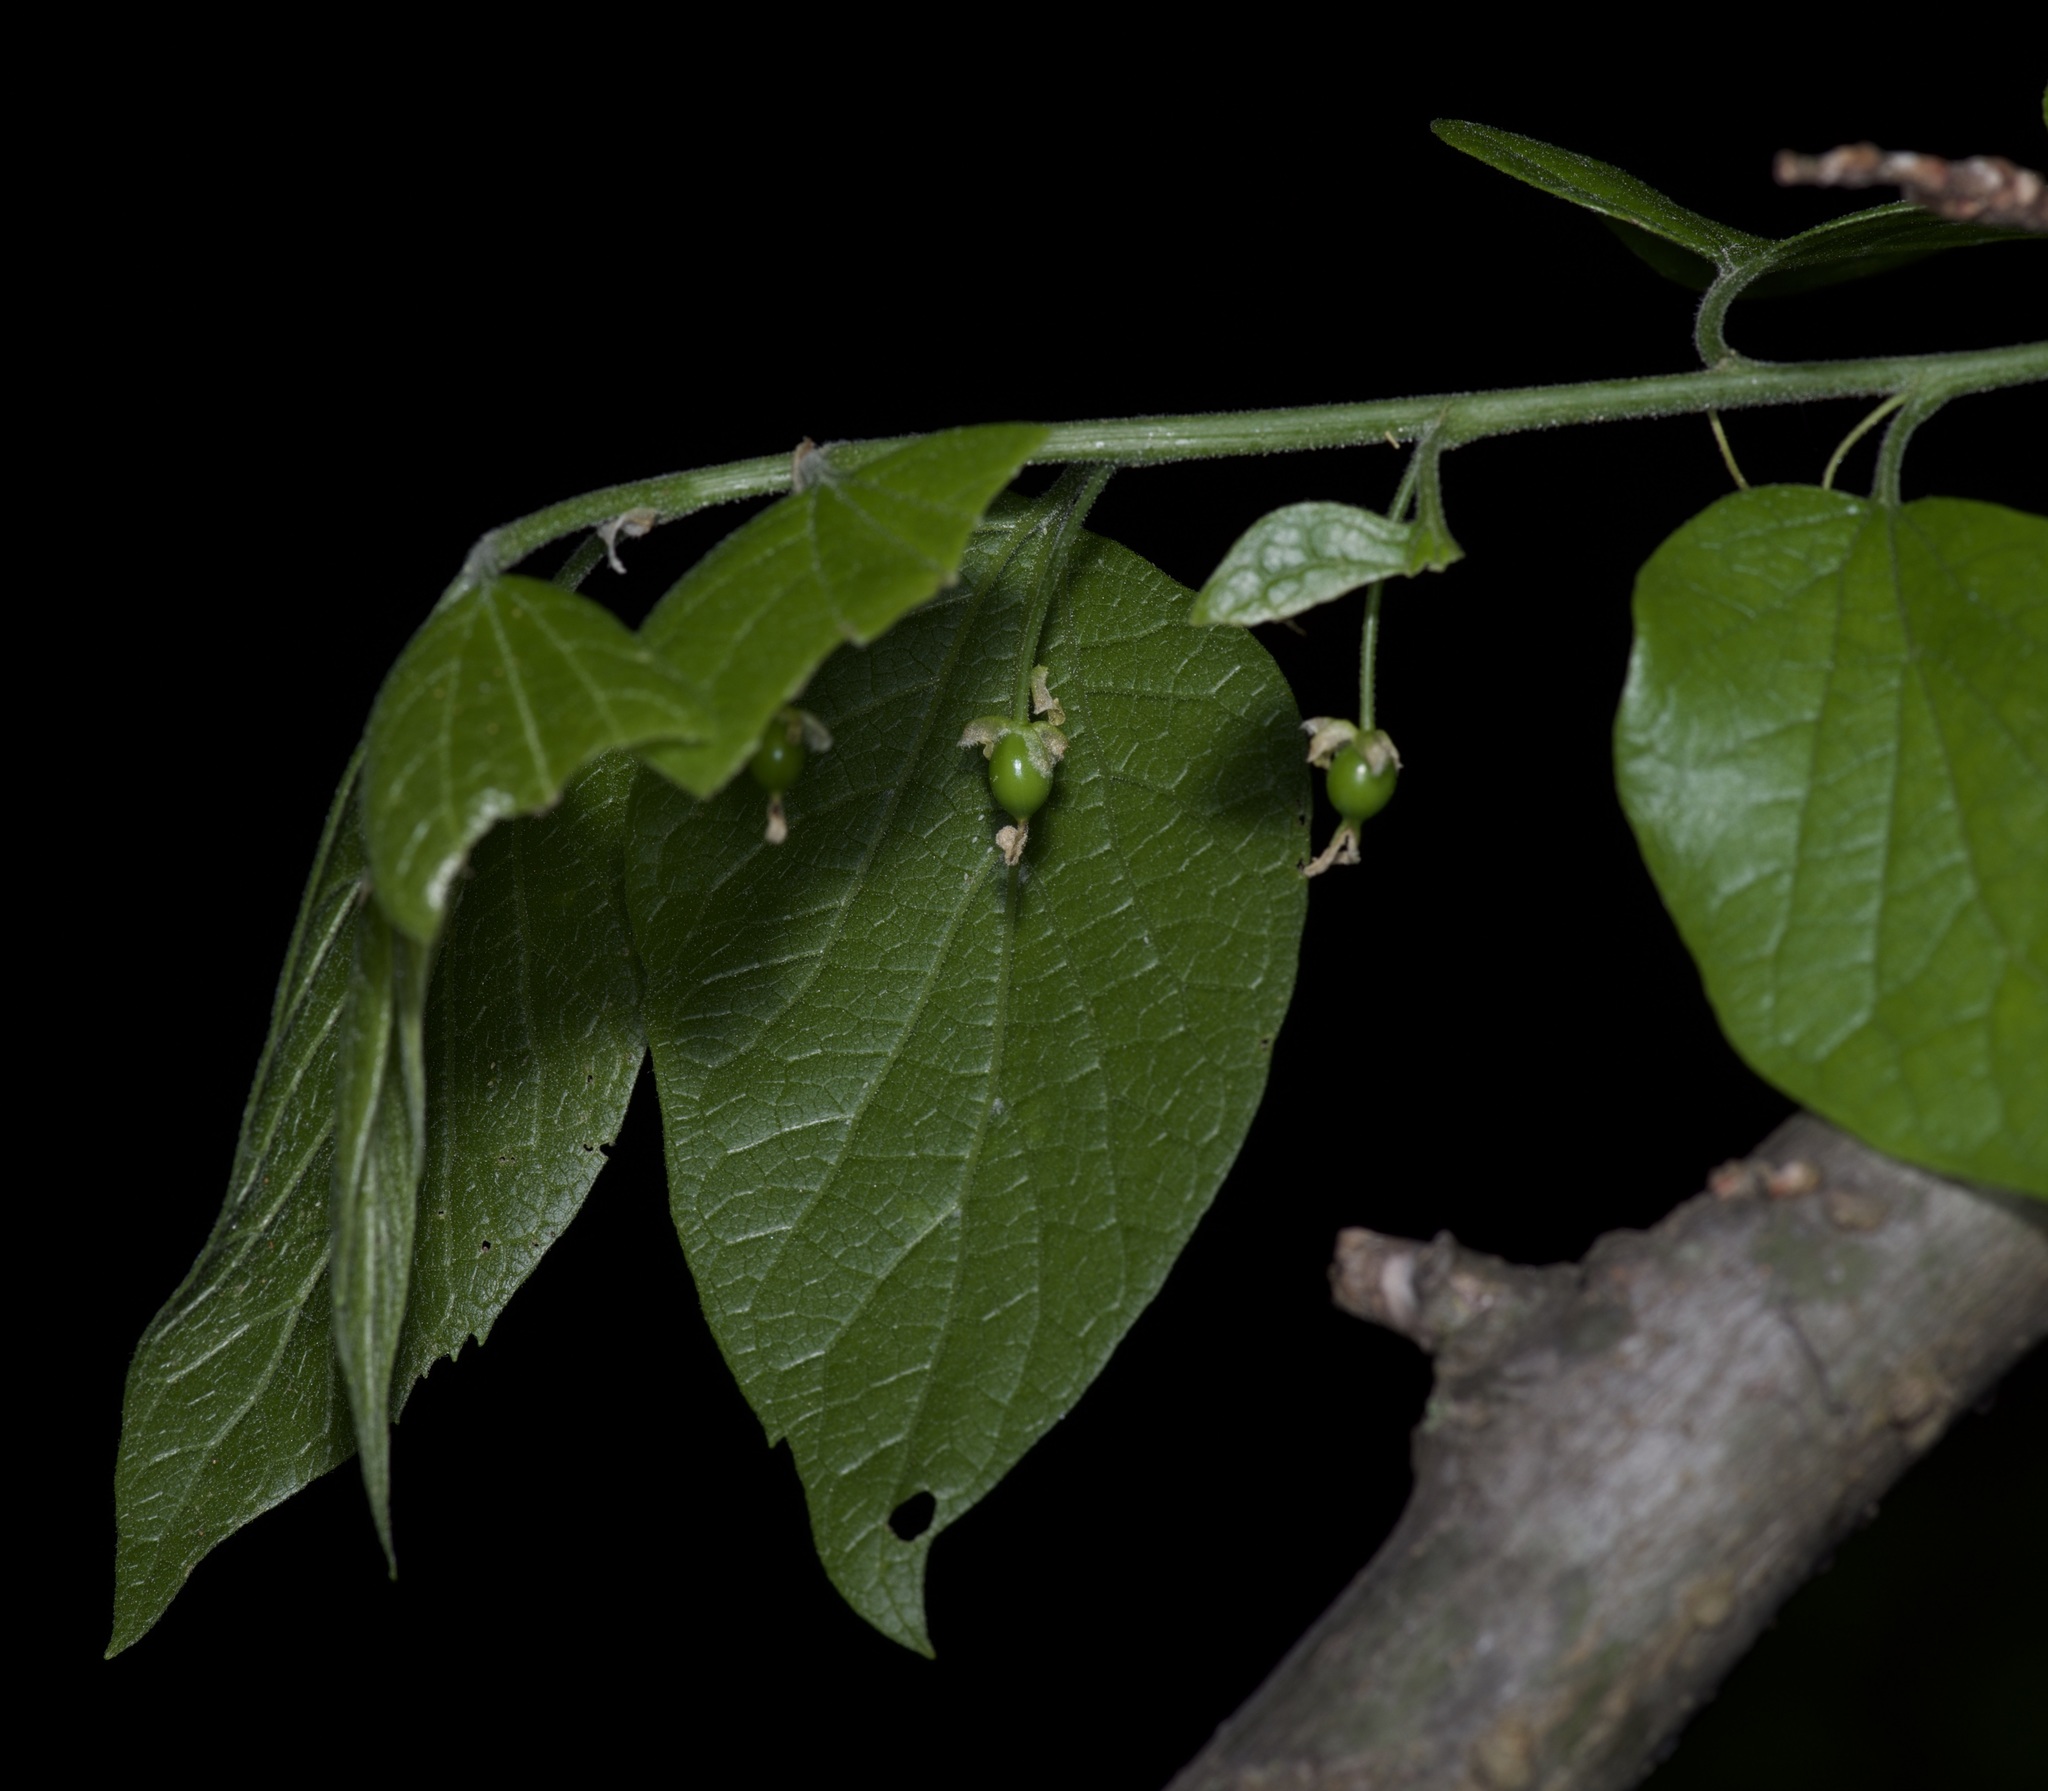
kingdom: Plantae
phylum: Tracheophyta
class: Magnoliopsida
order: Rosales
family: Cannabaceae
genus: Celtis
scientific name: Celtis laevigata
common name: Sugarberry
